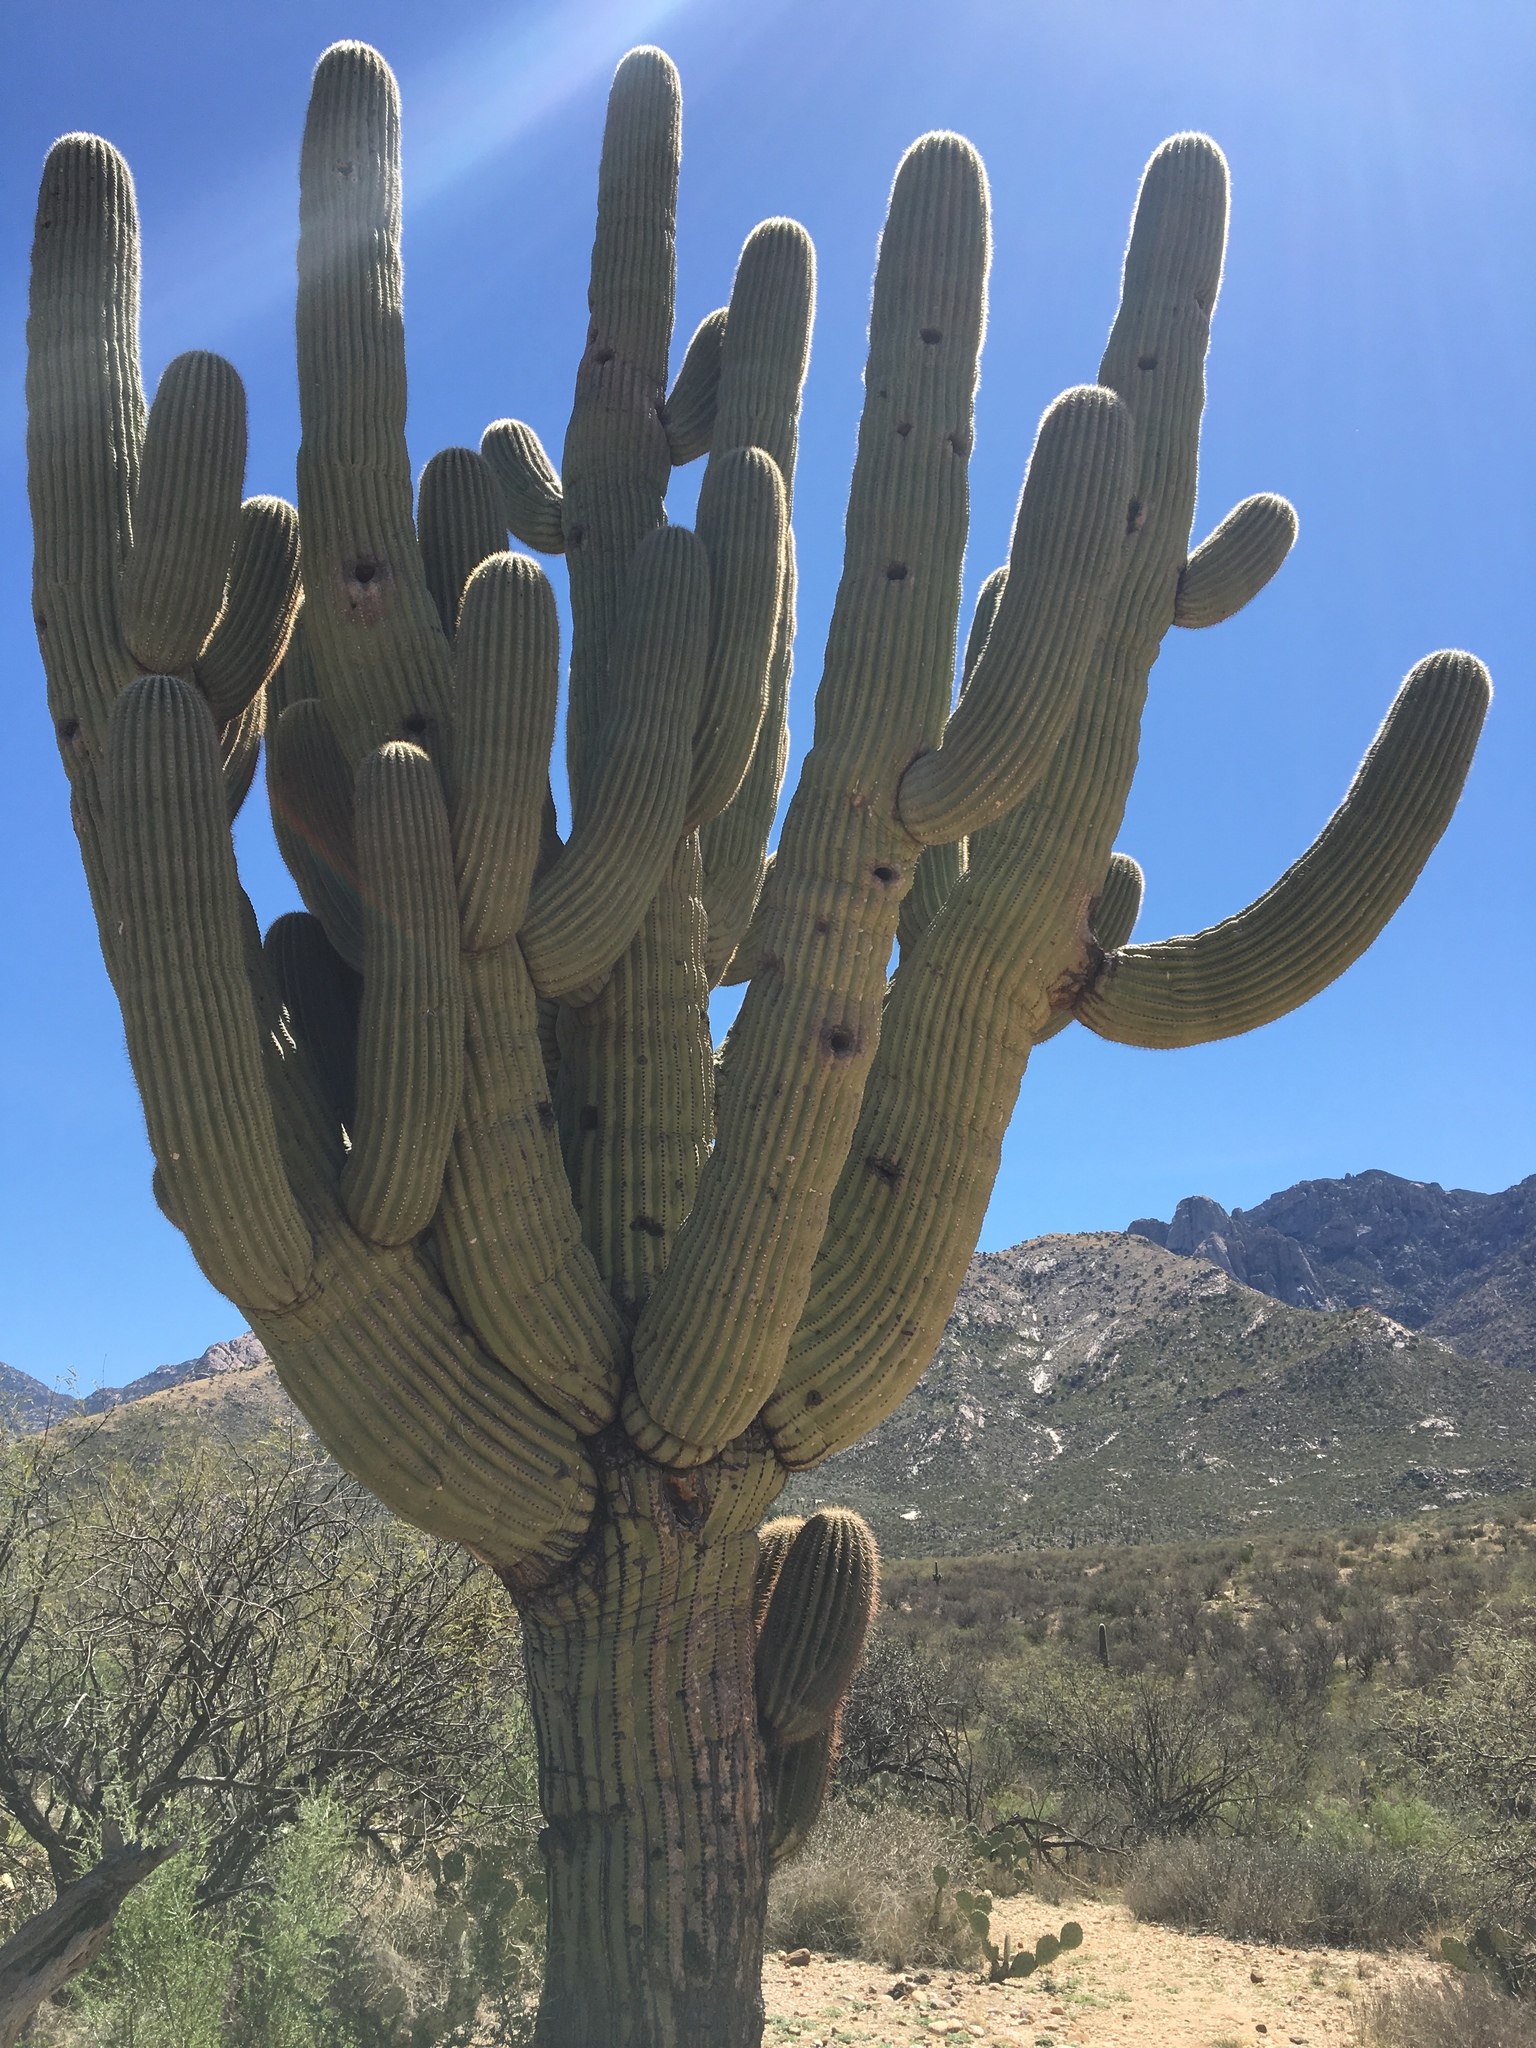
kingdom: Plantae
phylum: Tracheophyta
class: Magnoliopsida
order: Caryophyllales
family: Cactaceae
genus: Carnegiea
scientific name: Carnegiea gigantea
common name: Saguaro
